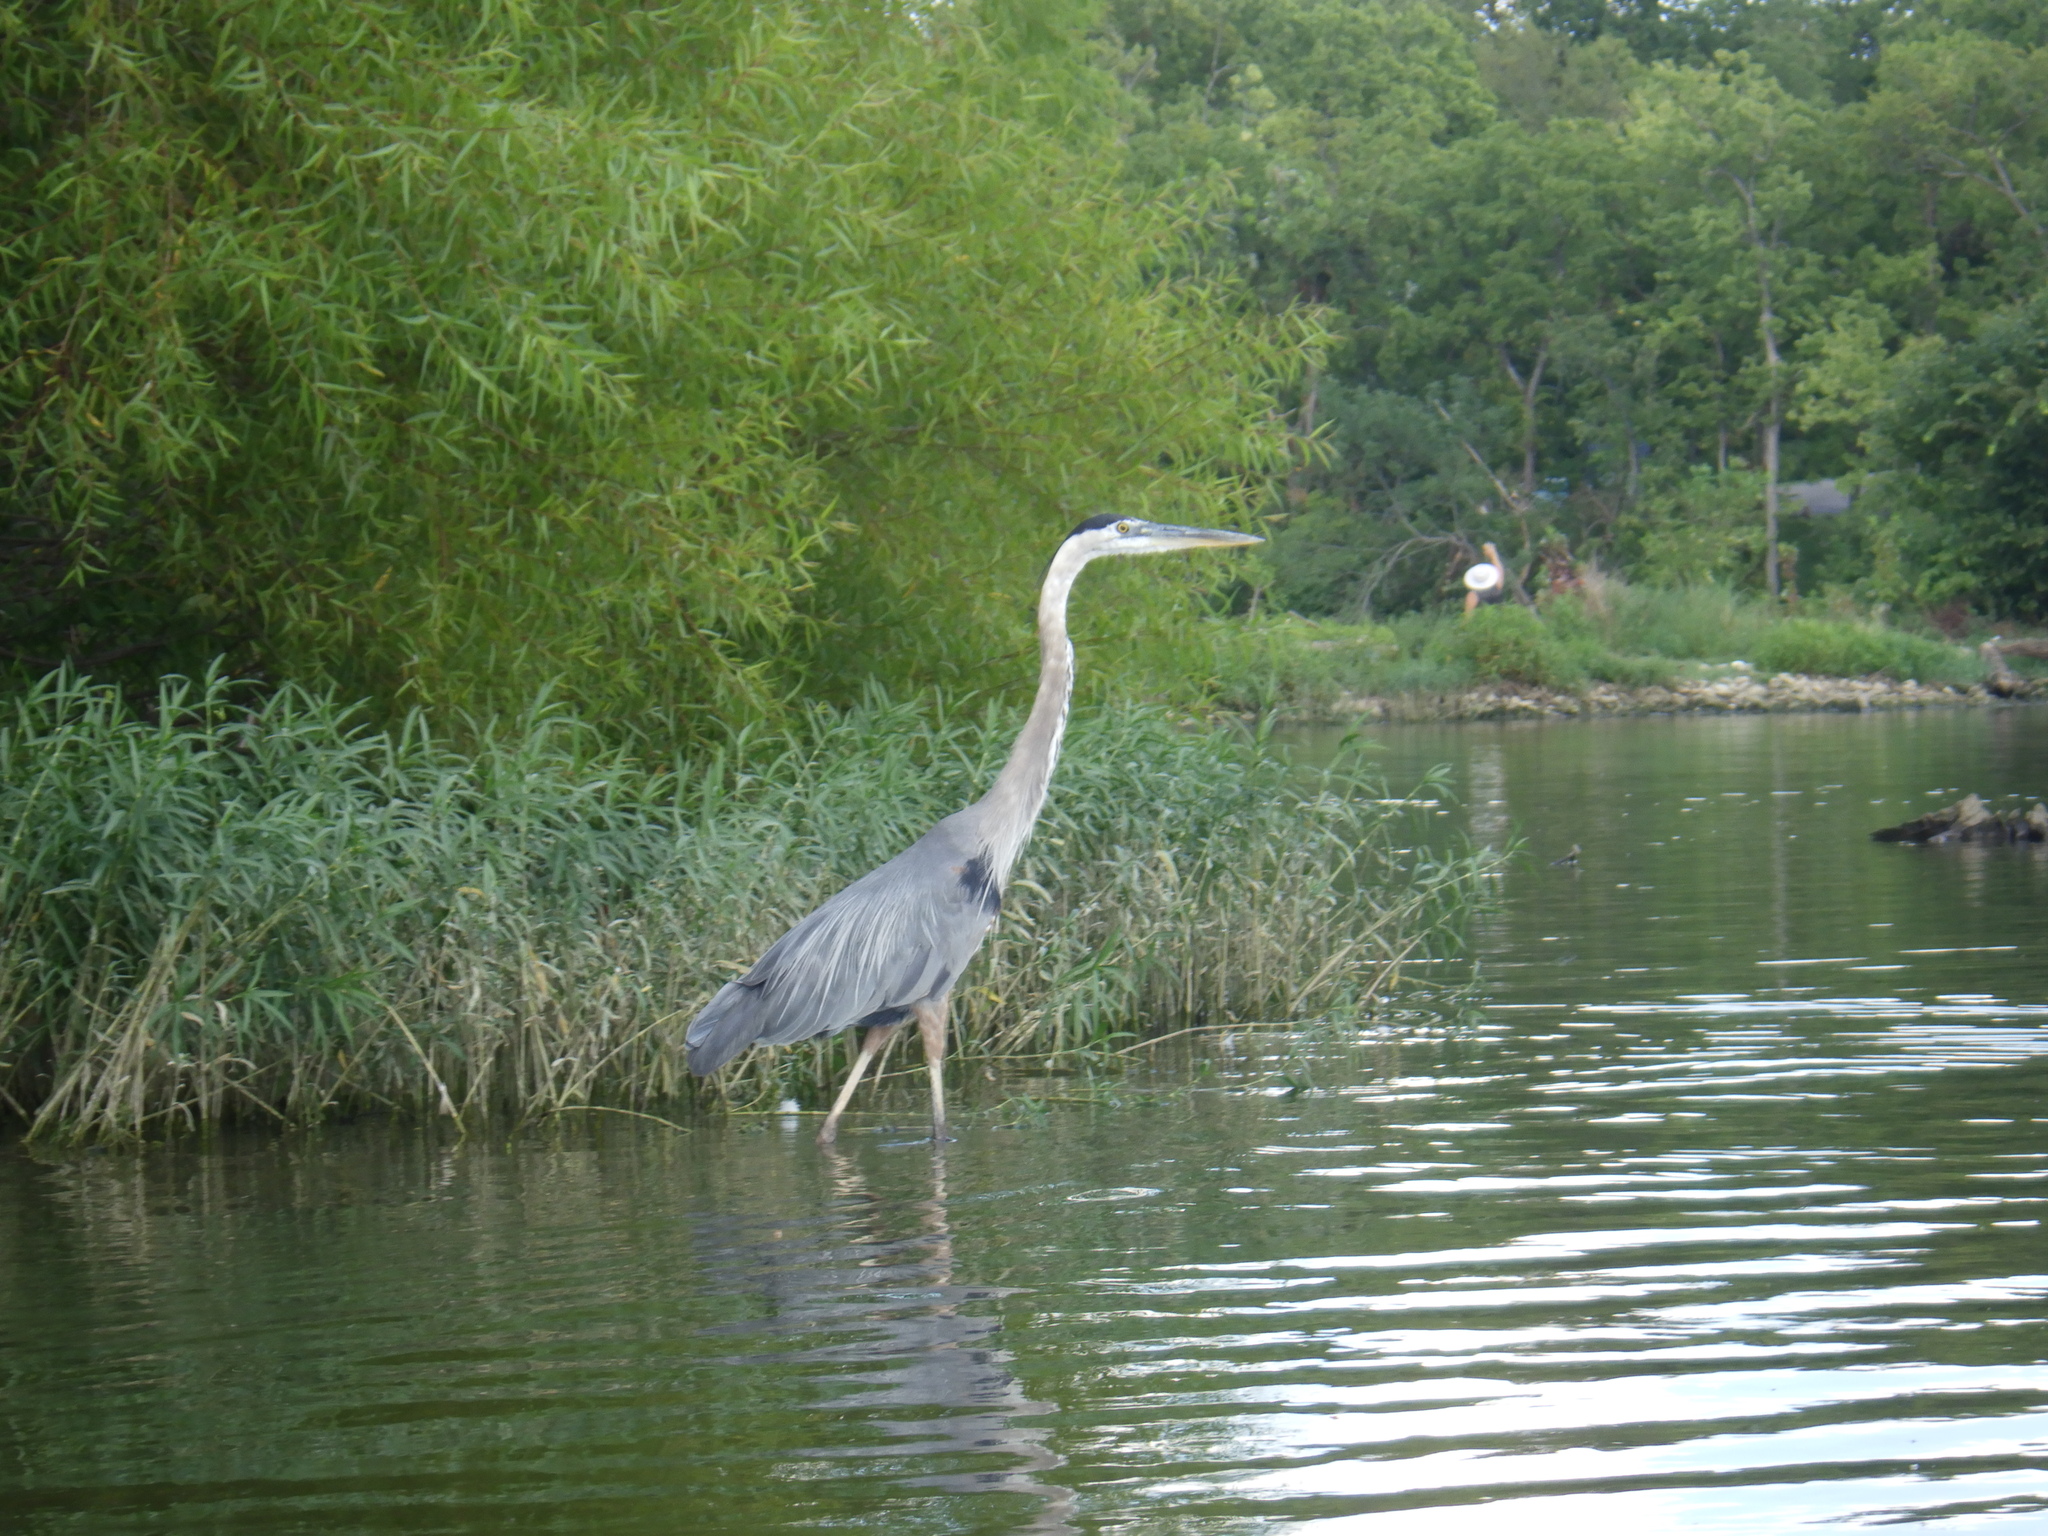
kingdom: Animalia
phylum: Chordata
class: Aves
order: Pelecaniformes
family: Ardeidae
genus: Ardea
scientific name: Ardea herodias
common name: Great blue heron
